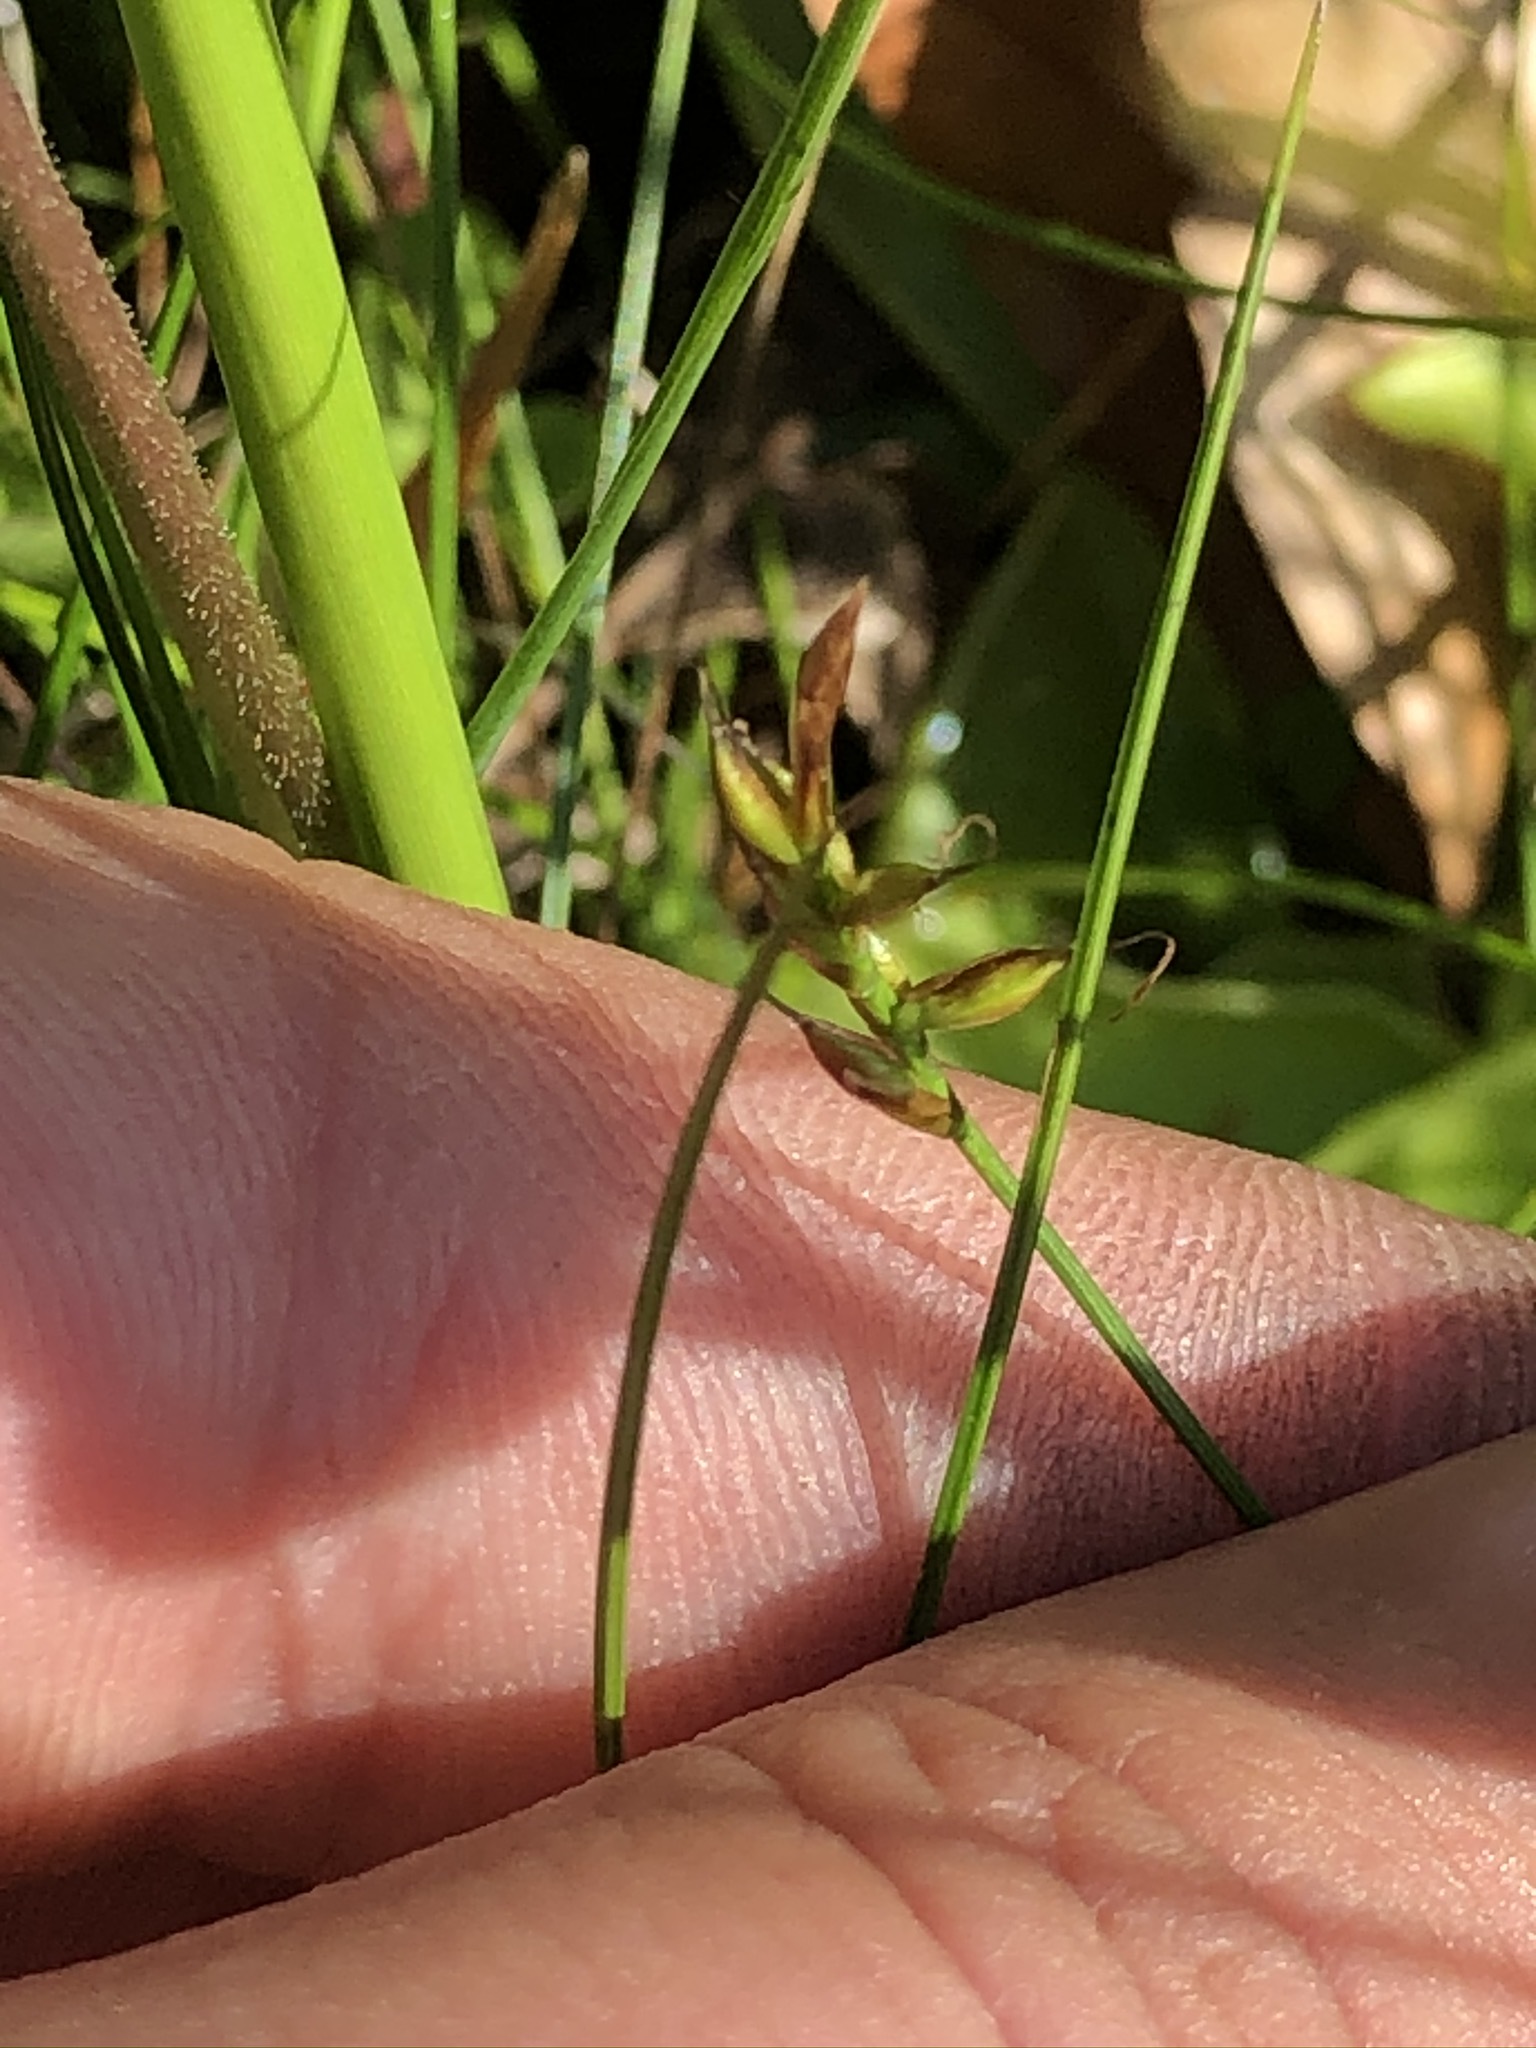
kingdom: Plantae
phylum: Tracheophyta
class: Liliopsida
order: Poales
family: Cyperaceae
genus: Carex
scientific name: Carex pulicaris
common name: Flea sedge
